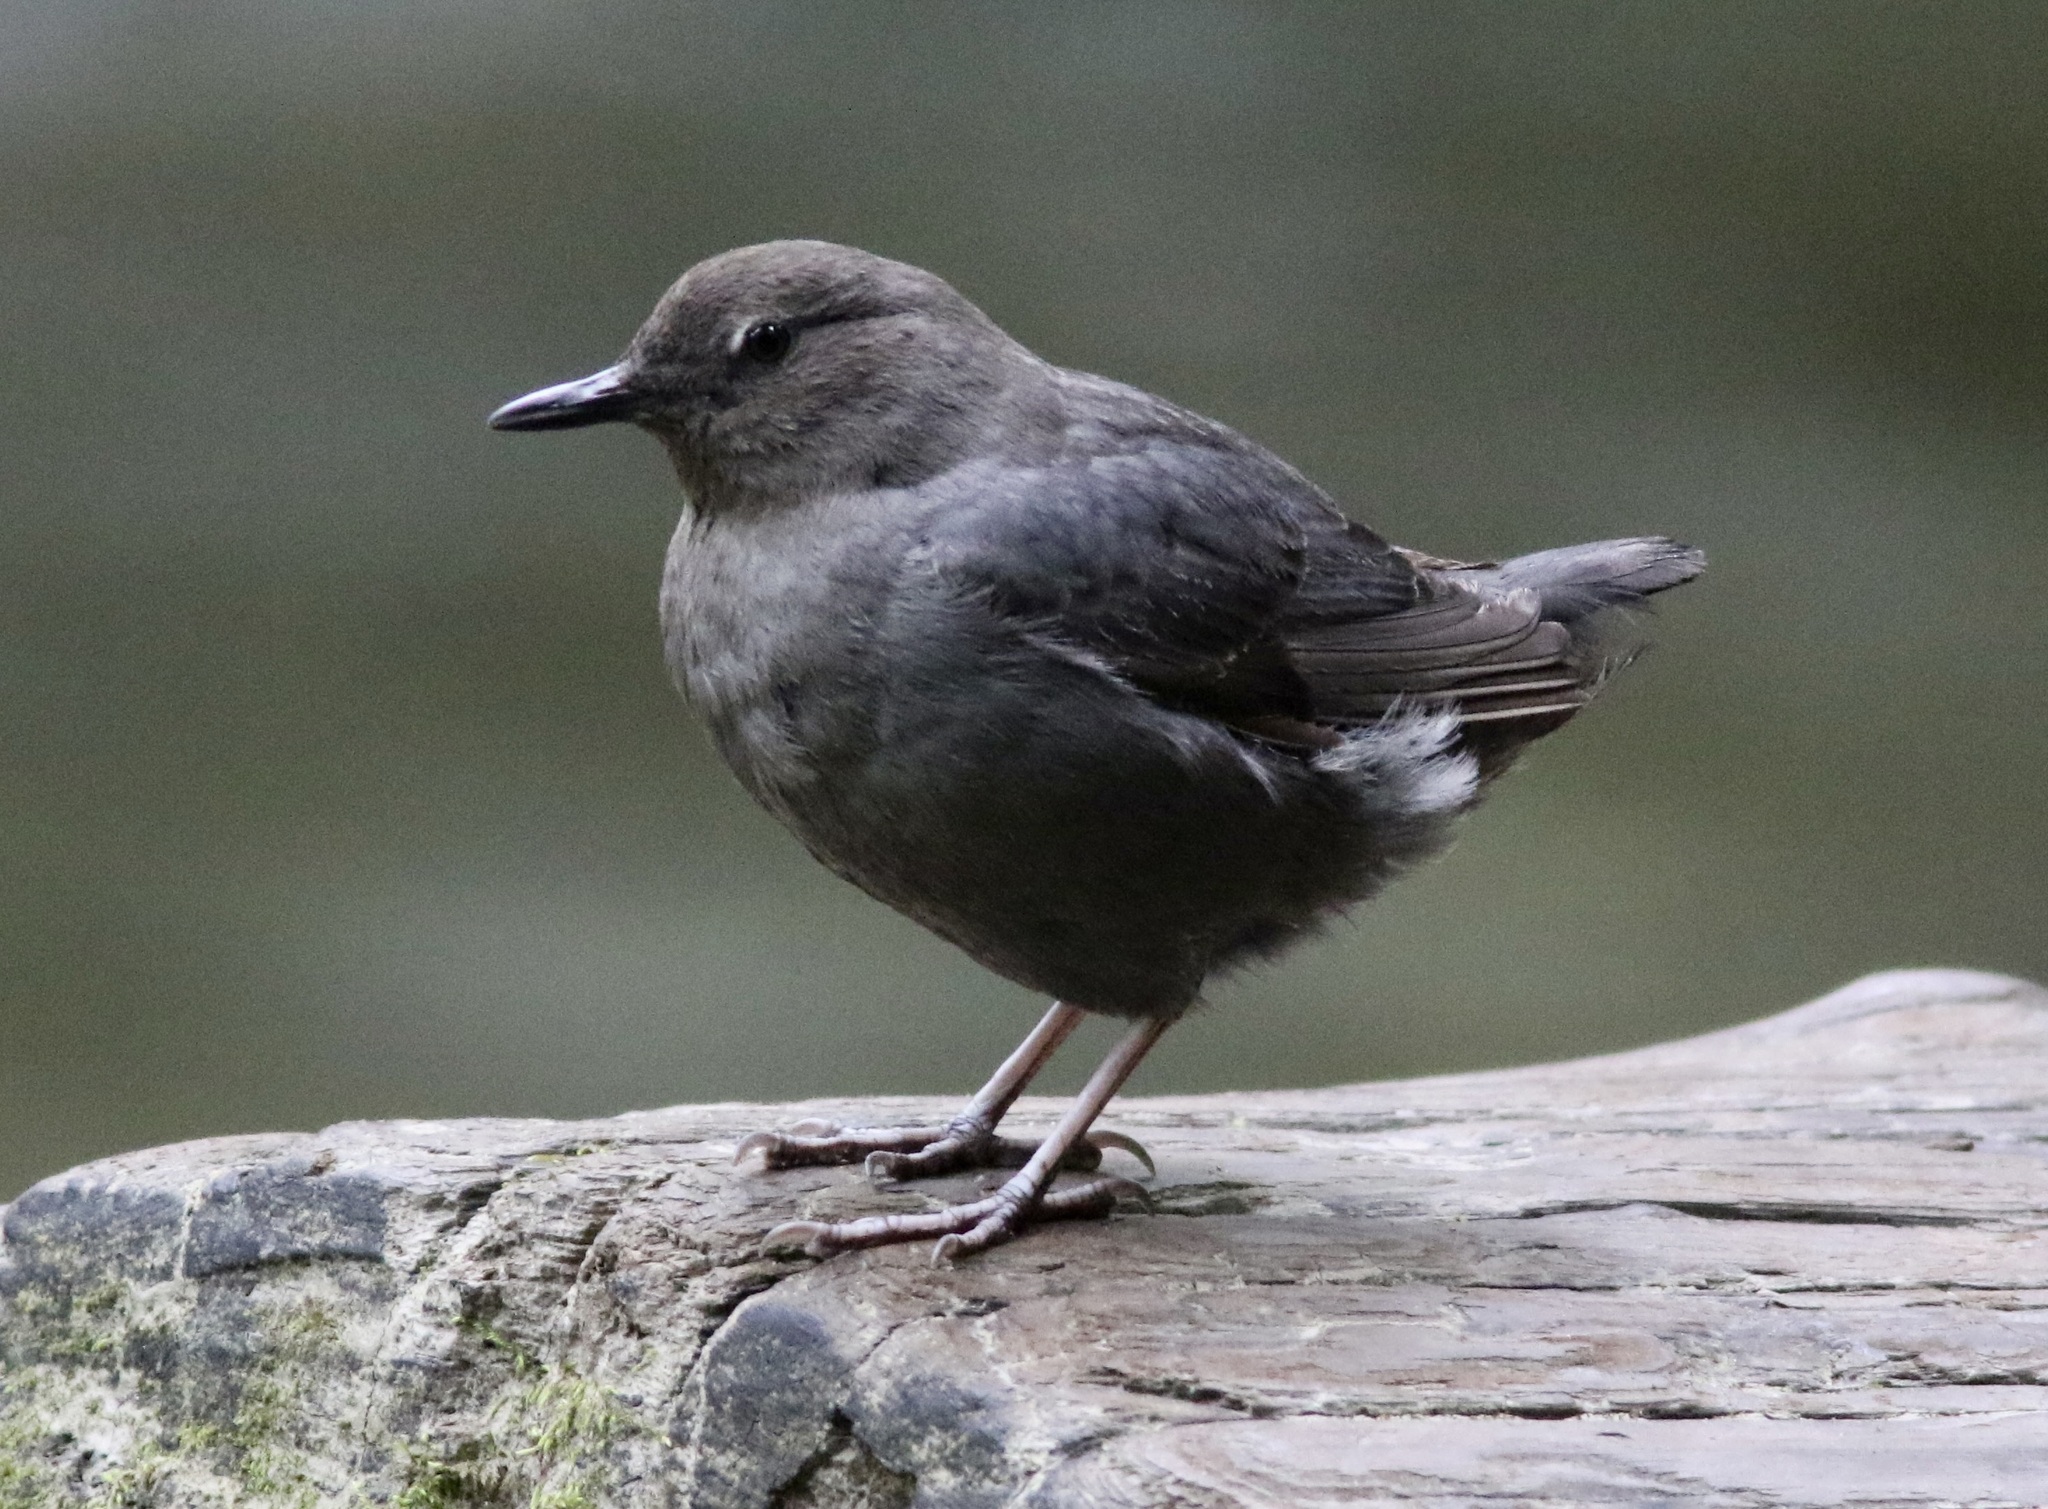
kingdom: Animalia
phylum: Chordata
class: Aves
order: Passeriformes
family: Cinclidae
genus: Cinclus
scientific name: Cinclus mexicanus
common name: American dipper
